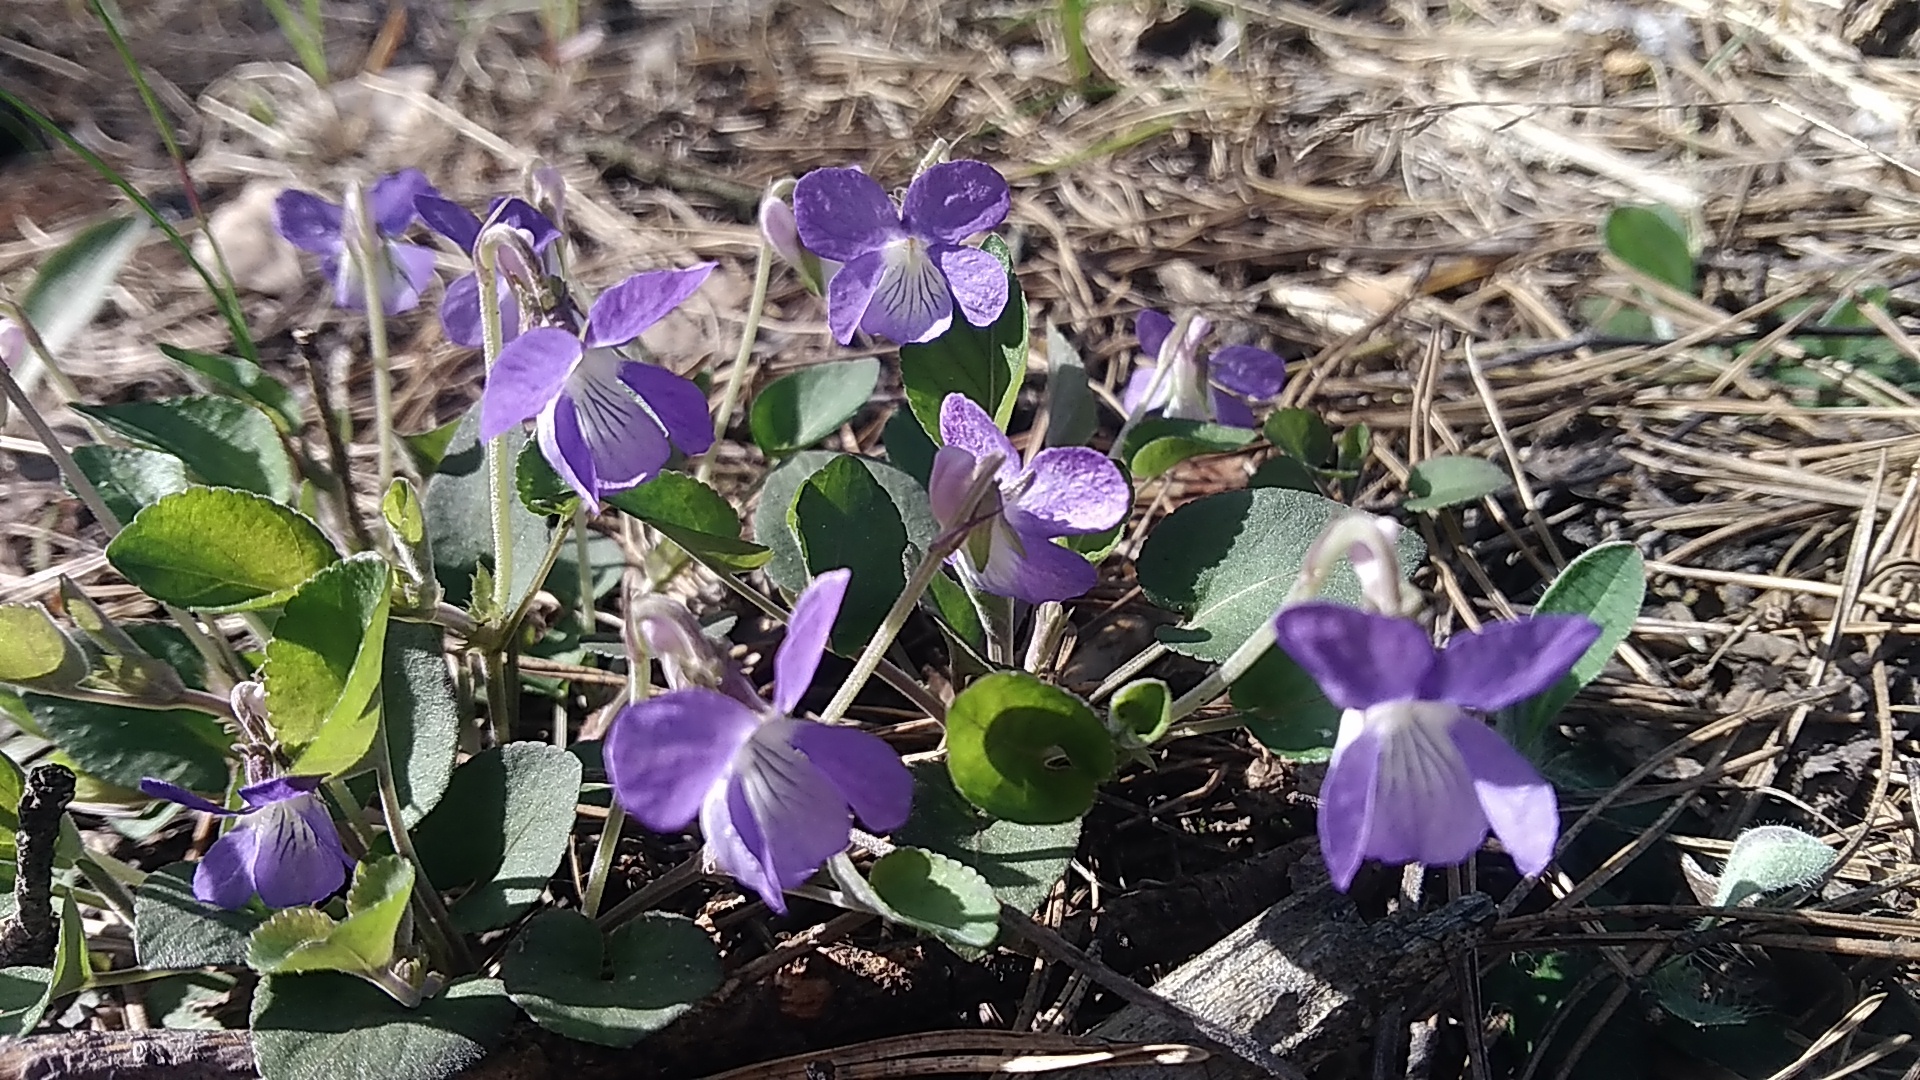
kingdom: Plantae
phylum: Tracheophyta
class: Magnoliopsida
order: Malpighiales
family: Violaceae
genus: Viola
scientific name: Viola rupestris
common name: Teesdale violet
